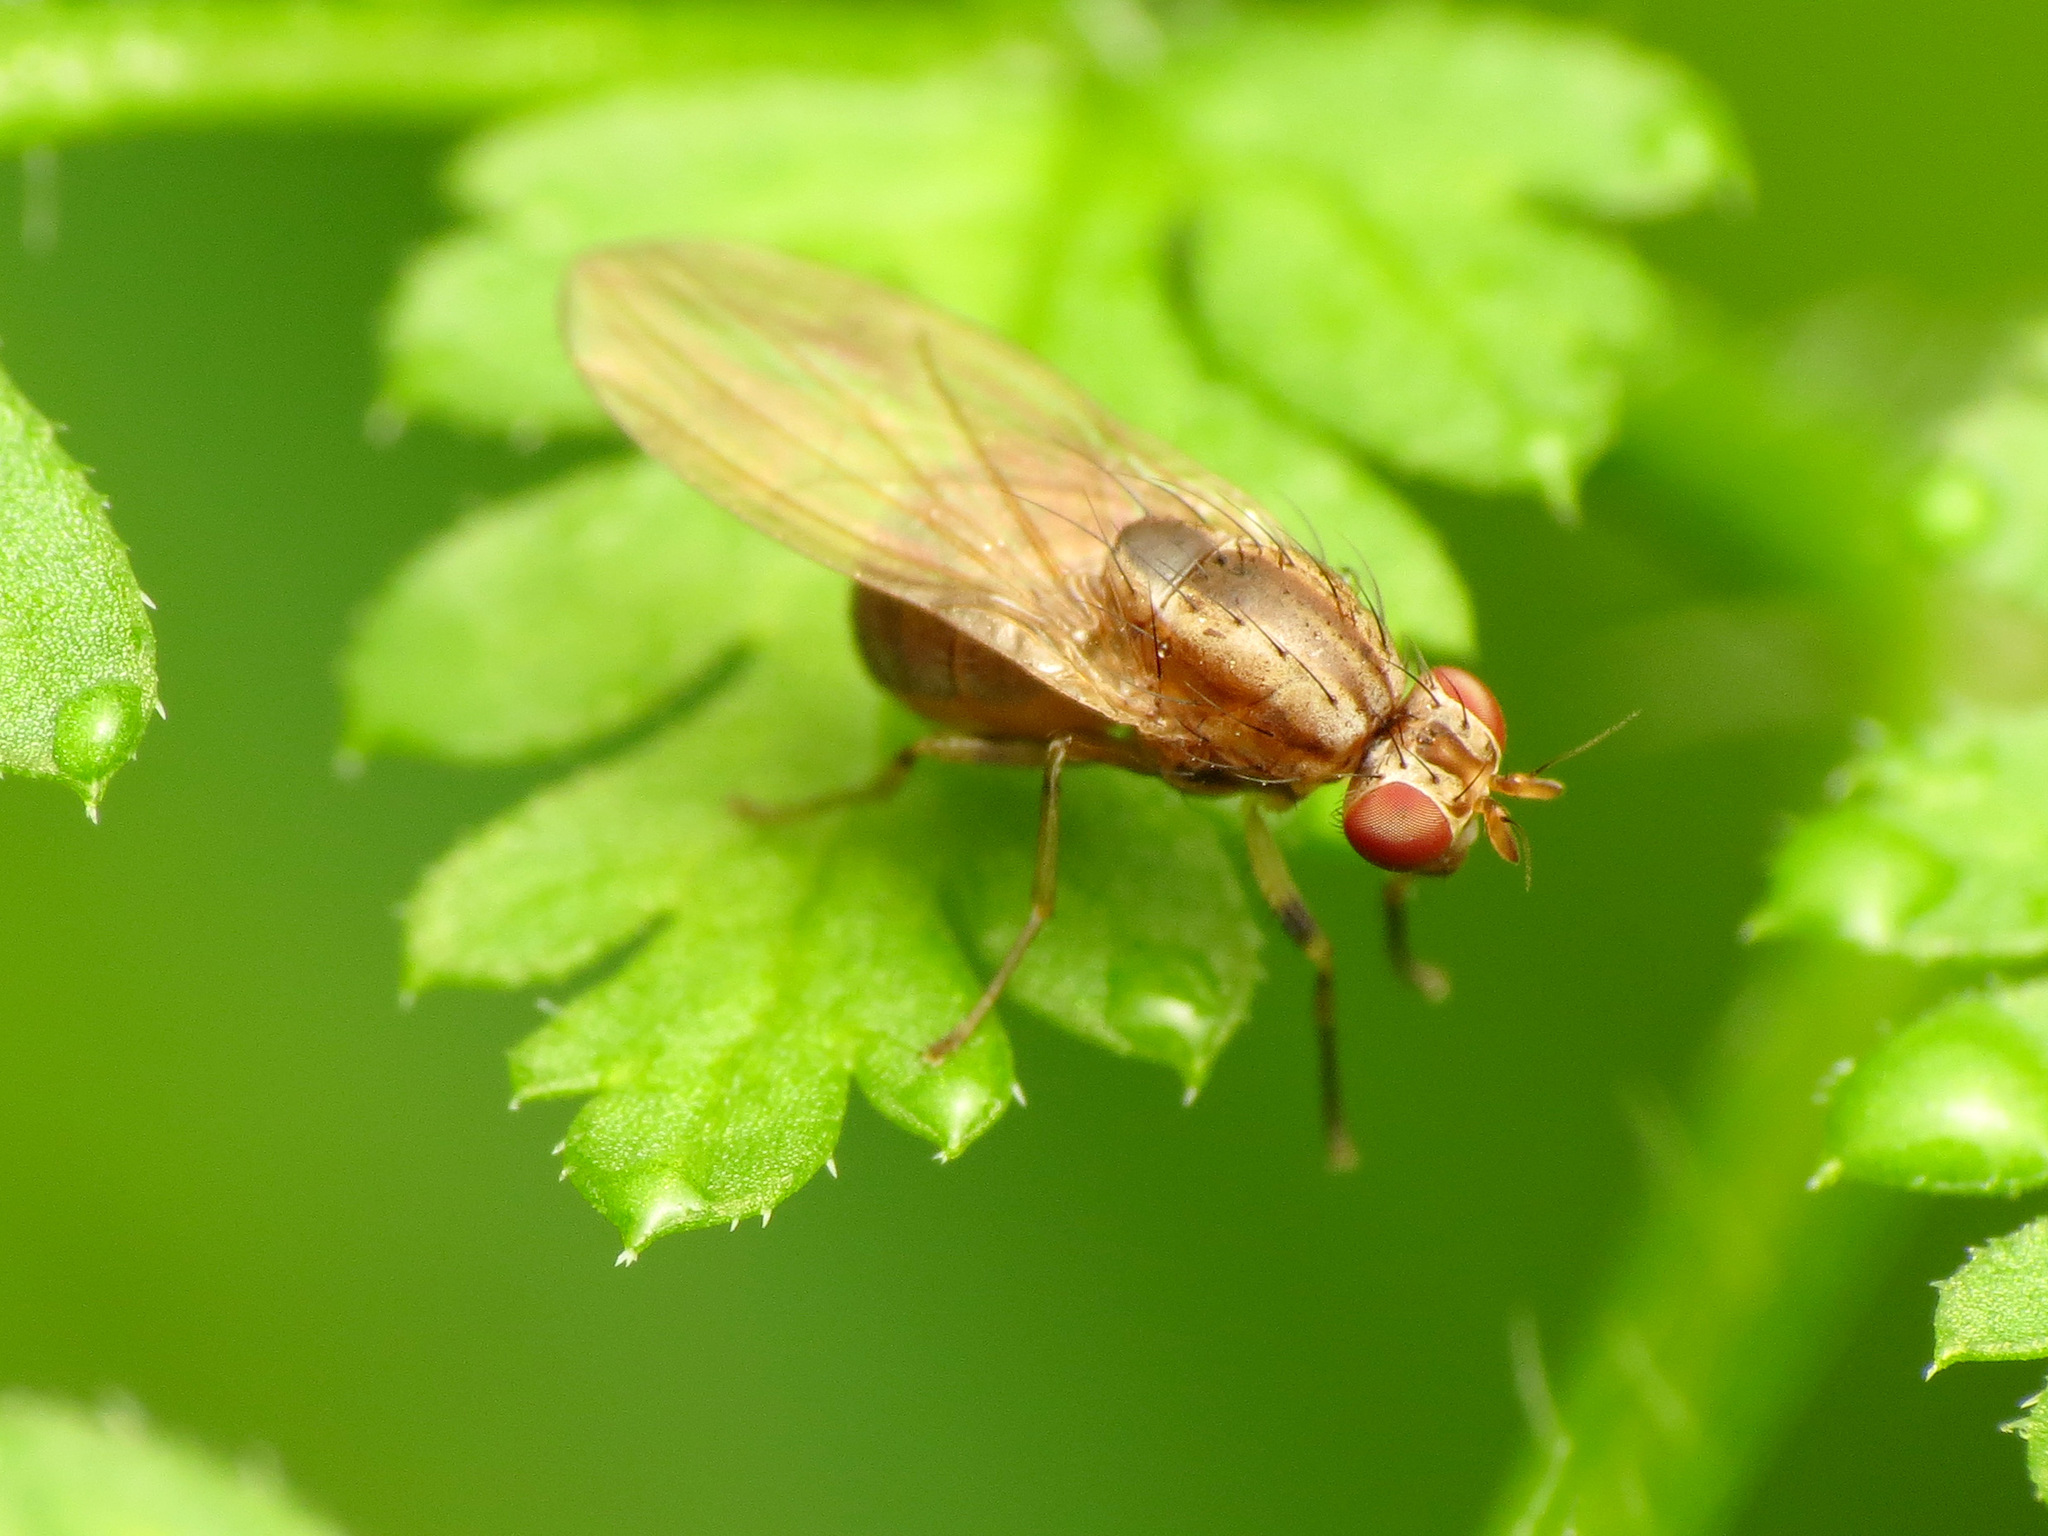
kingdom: Animalia
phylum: Arthropoda
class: Insecta
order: Diptera
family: Lauxaniidae
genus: Poecilohetaerus
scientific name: Poecilohetaerus punctatifacies
